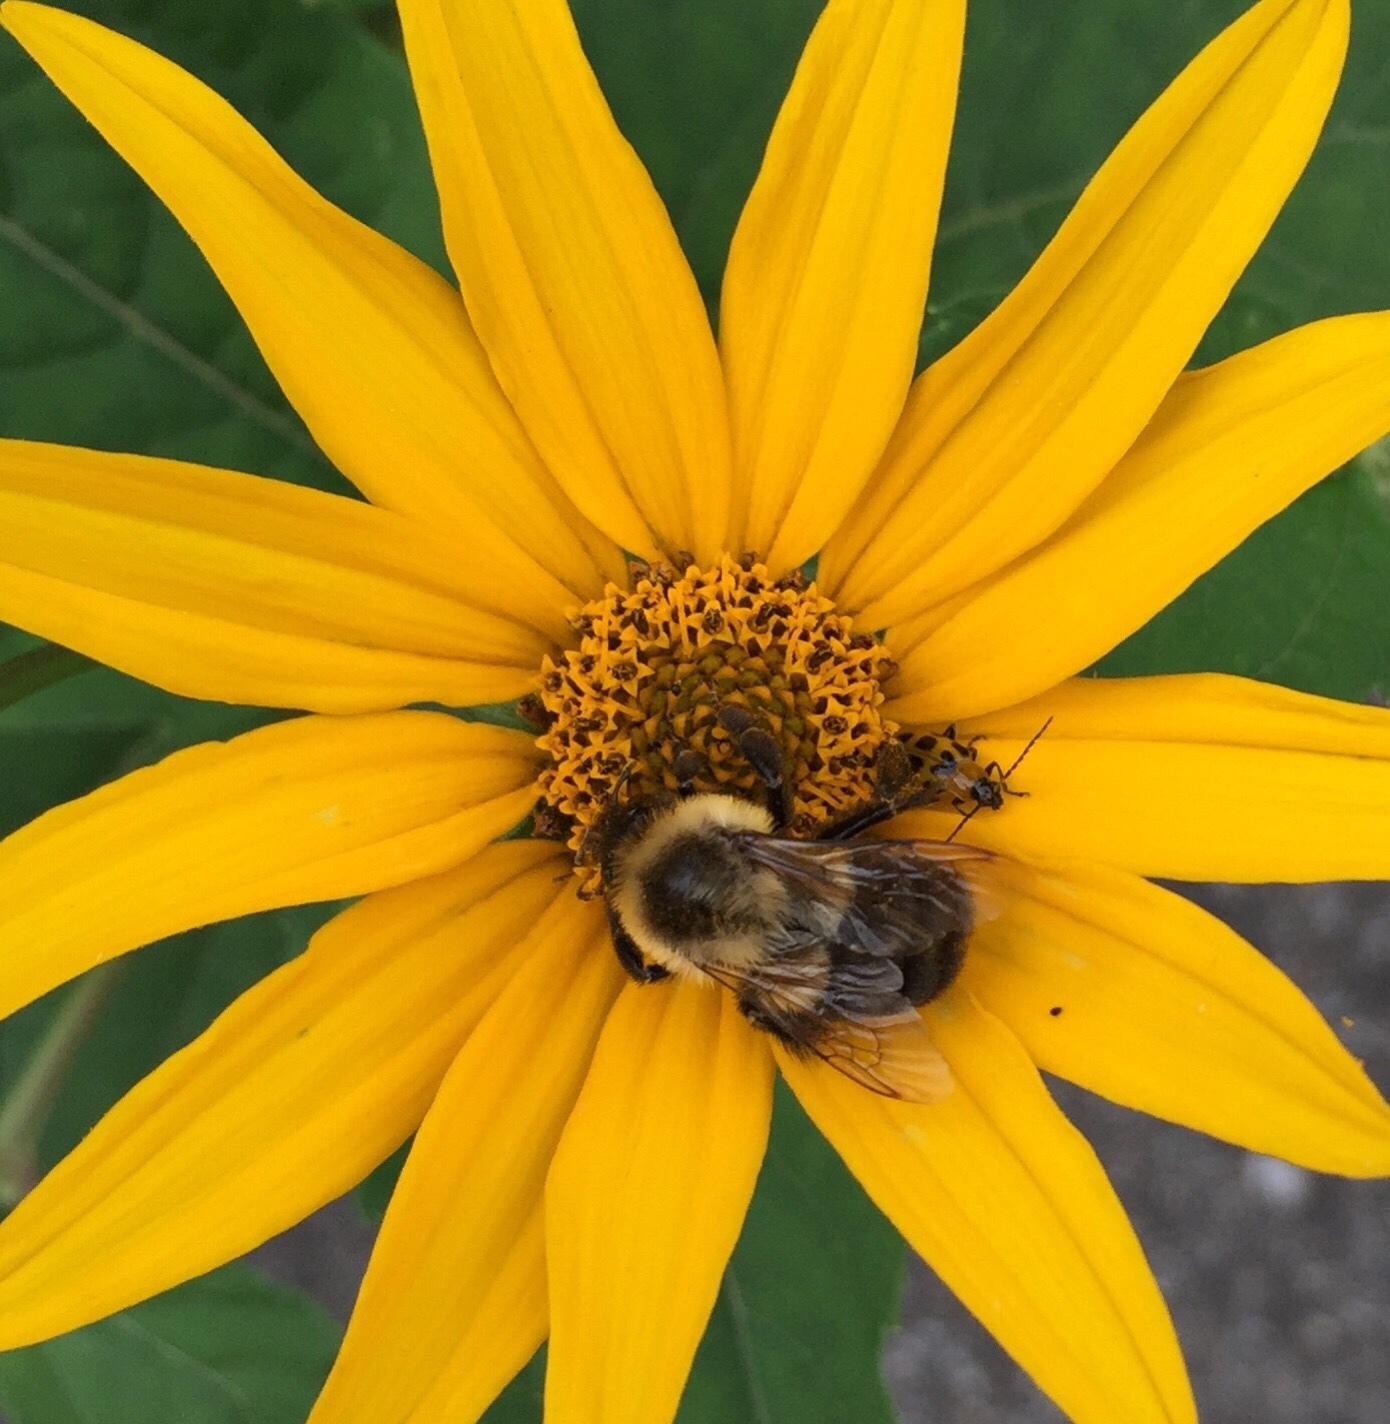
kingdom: Animalia
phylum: Arthropoda
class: Insecta
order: Hymenoptera
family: Apidae
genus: Bombus
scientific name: Bombus impatiens
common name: Common eastern bumble bee
